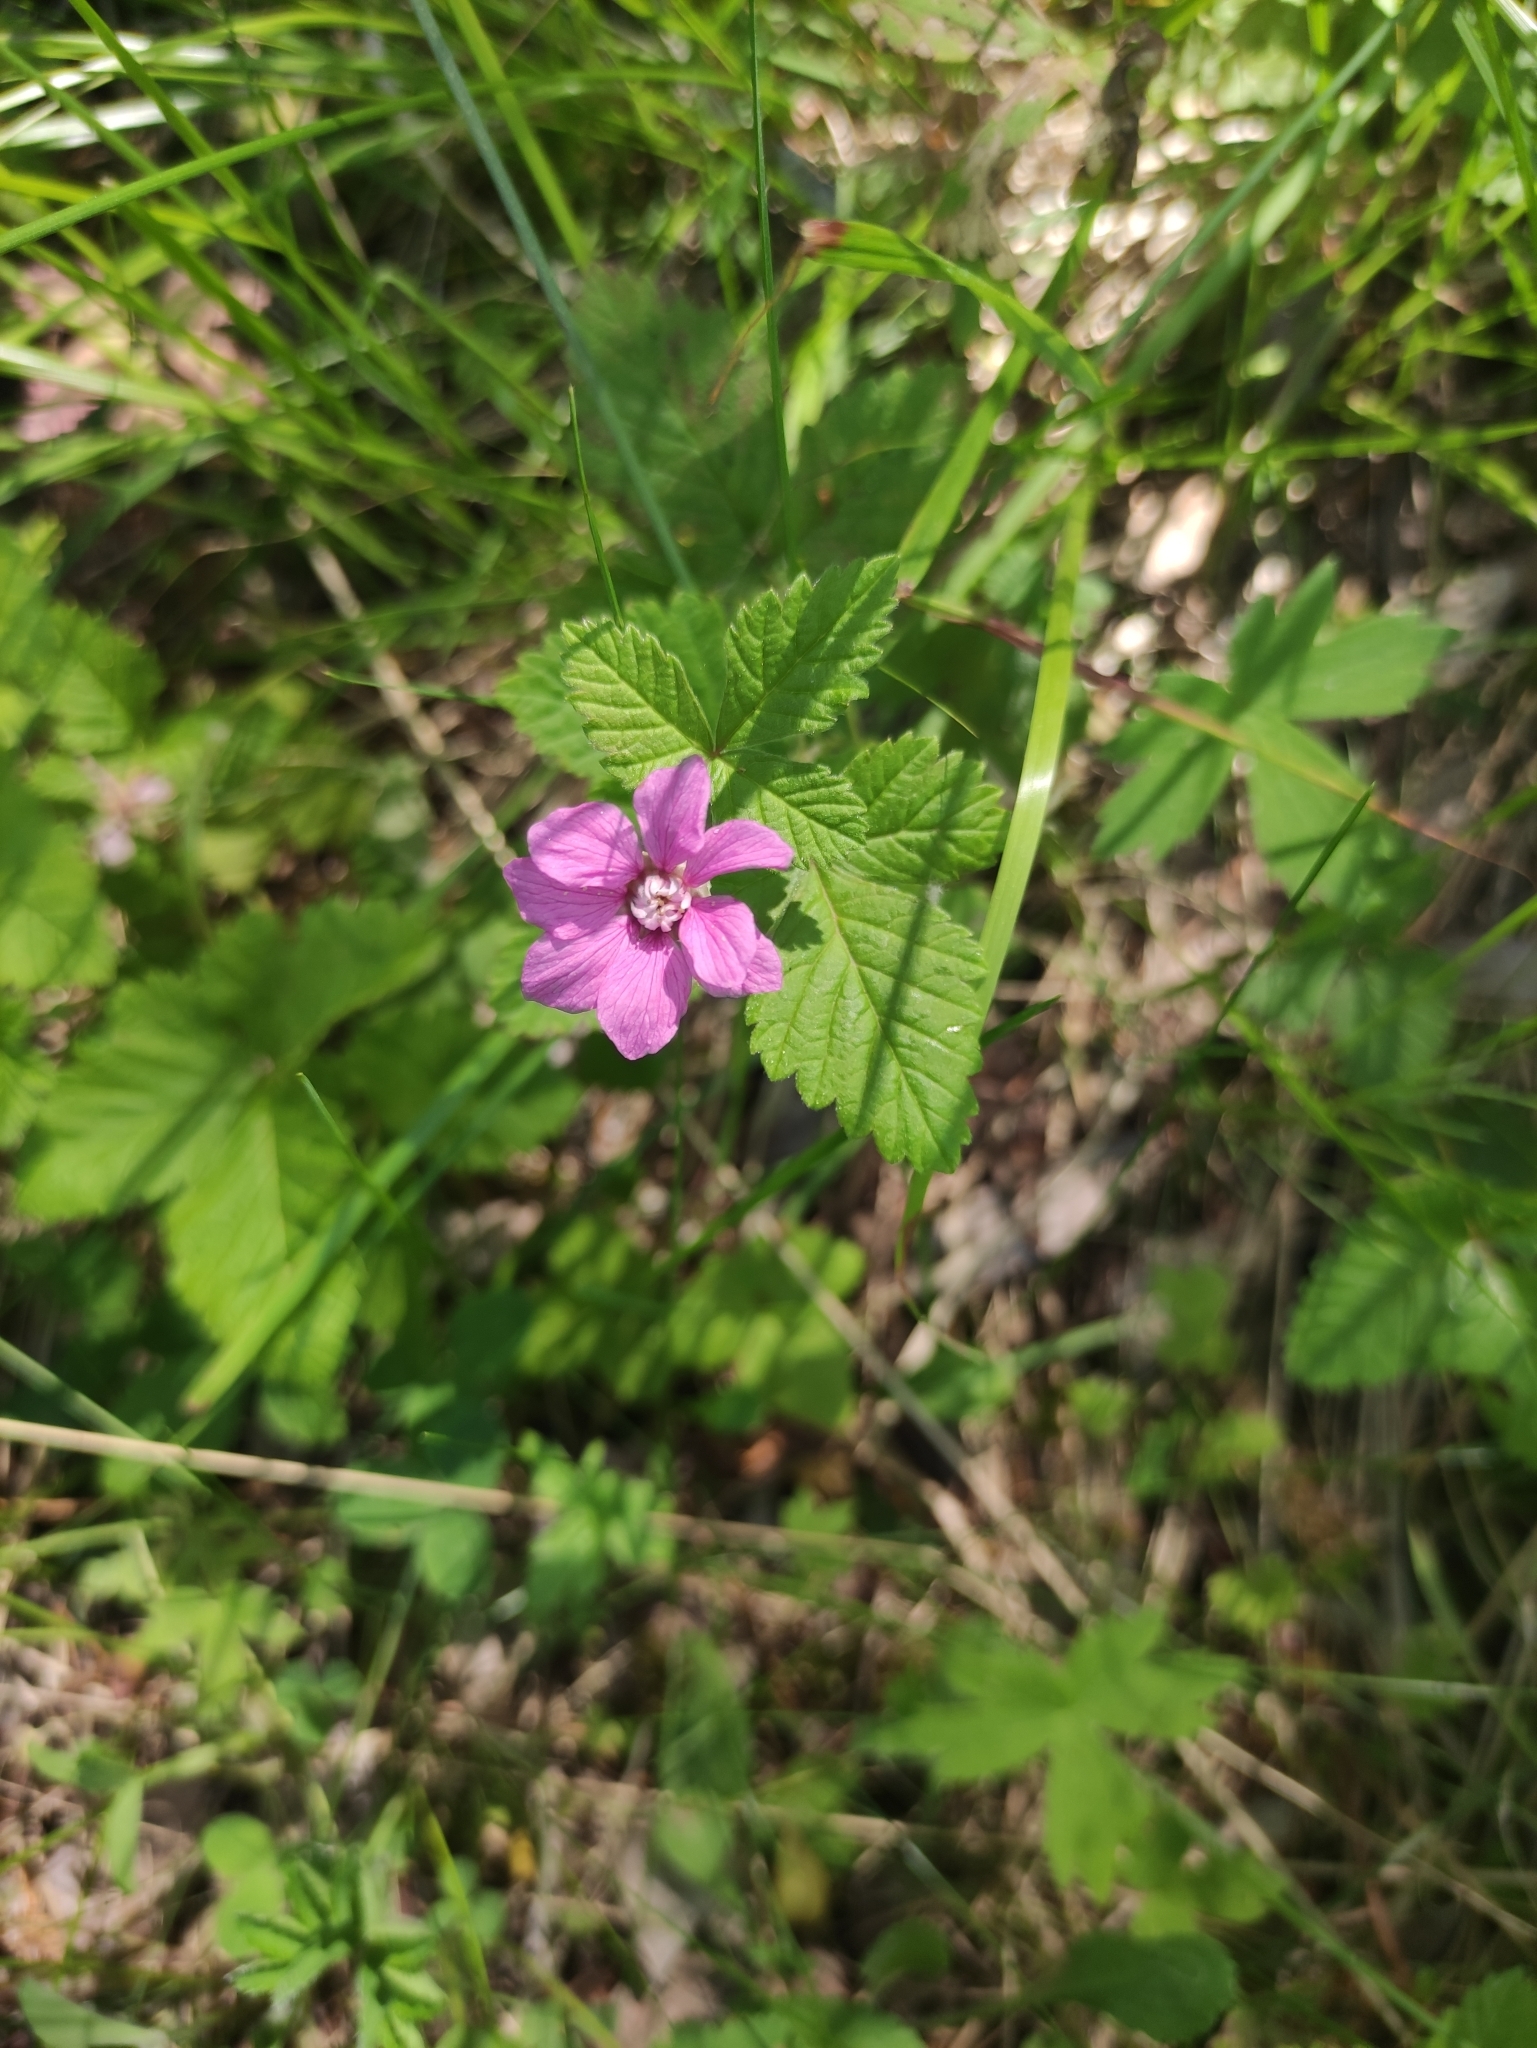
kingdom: Plantae
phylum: Tracheophyta
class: Magnoliopsida
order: Rosales
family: Rosaceae
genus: Rubus
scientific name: Rubus arcticus
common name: Arctic bramble
